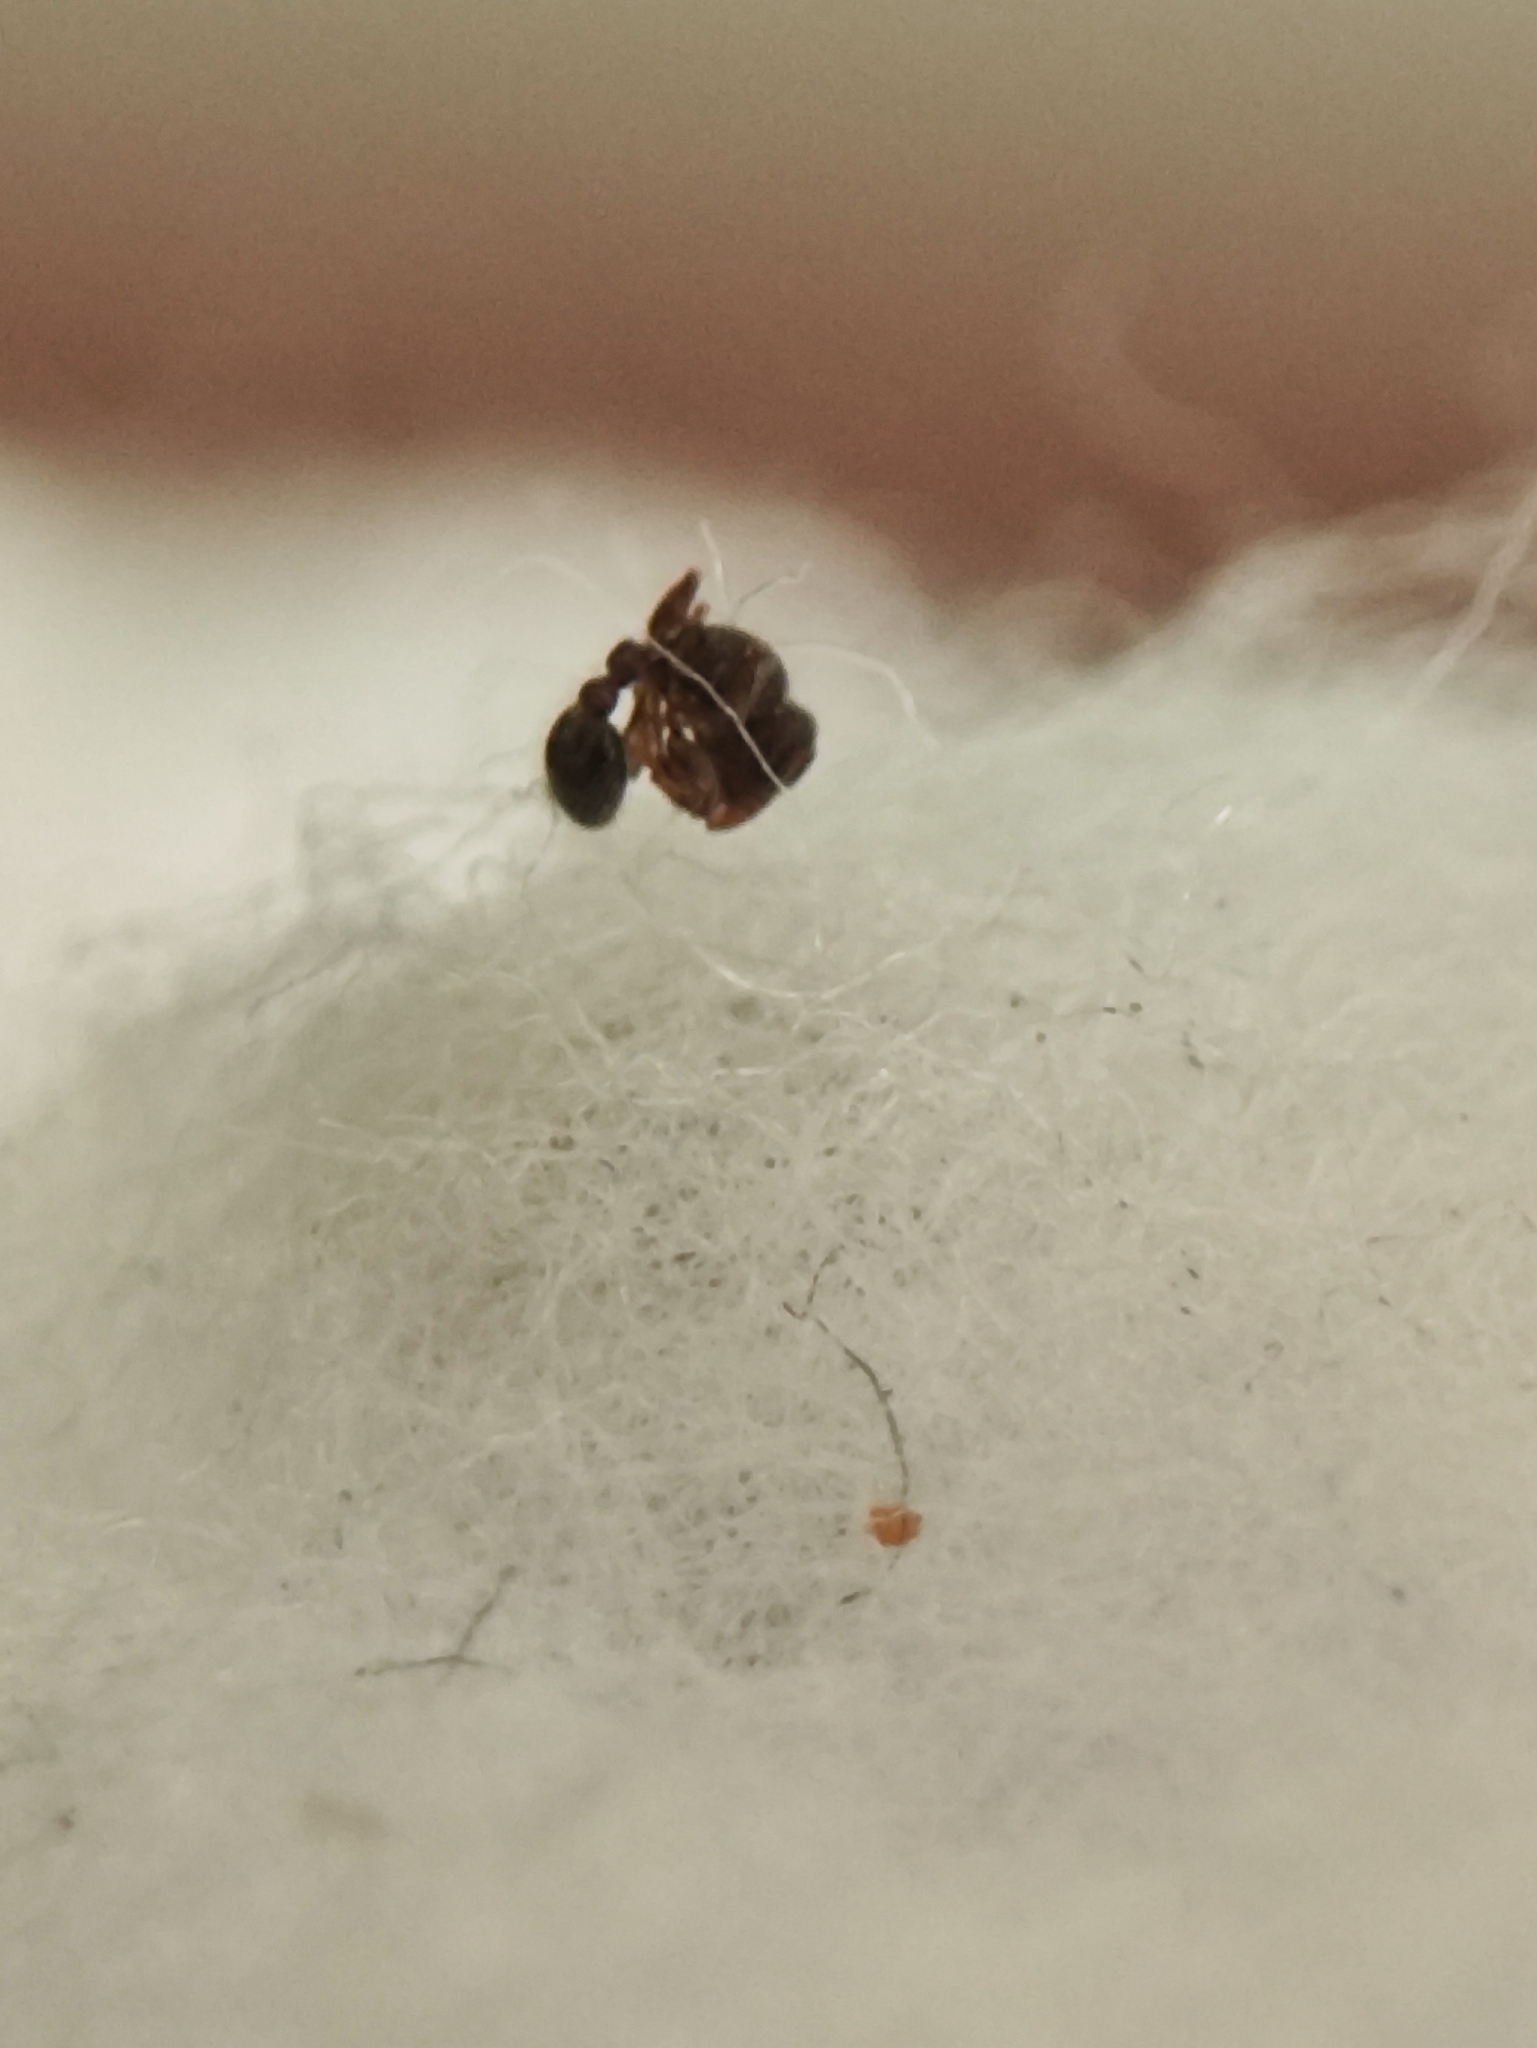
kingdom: Animalia
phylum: Arthropoda
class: Insecta
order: Hymenoptera
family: Formicidae
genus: Tetramorium
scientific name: Tetramorium lanuginosum
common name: Ant
